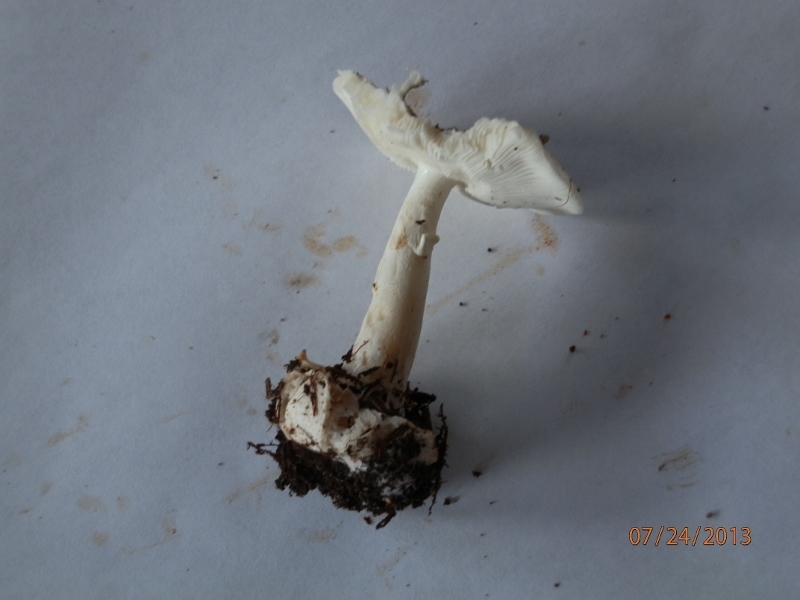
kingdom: Fungi
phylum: Basidiomycota
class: Agaricomycetes
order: Agaricales
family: Amanitaceae
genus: Amanita
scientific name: Amanita brunnescens
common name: Brown american star-footed amanita
